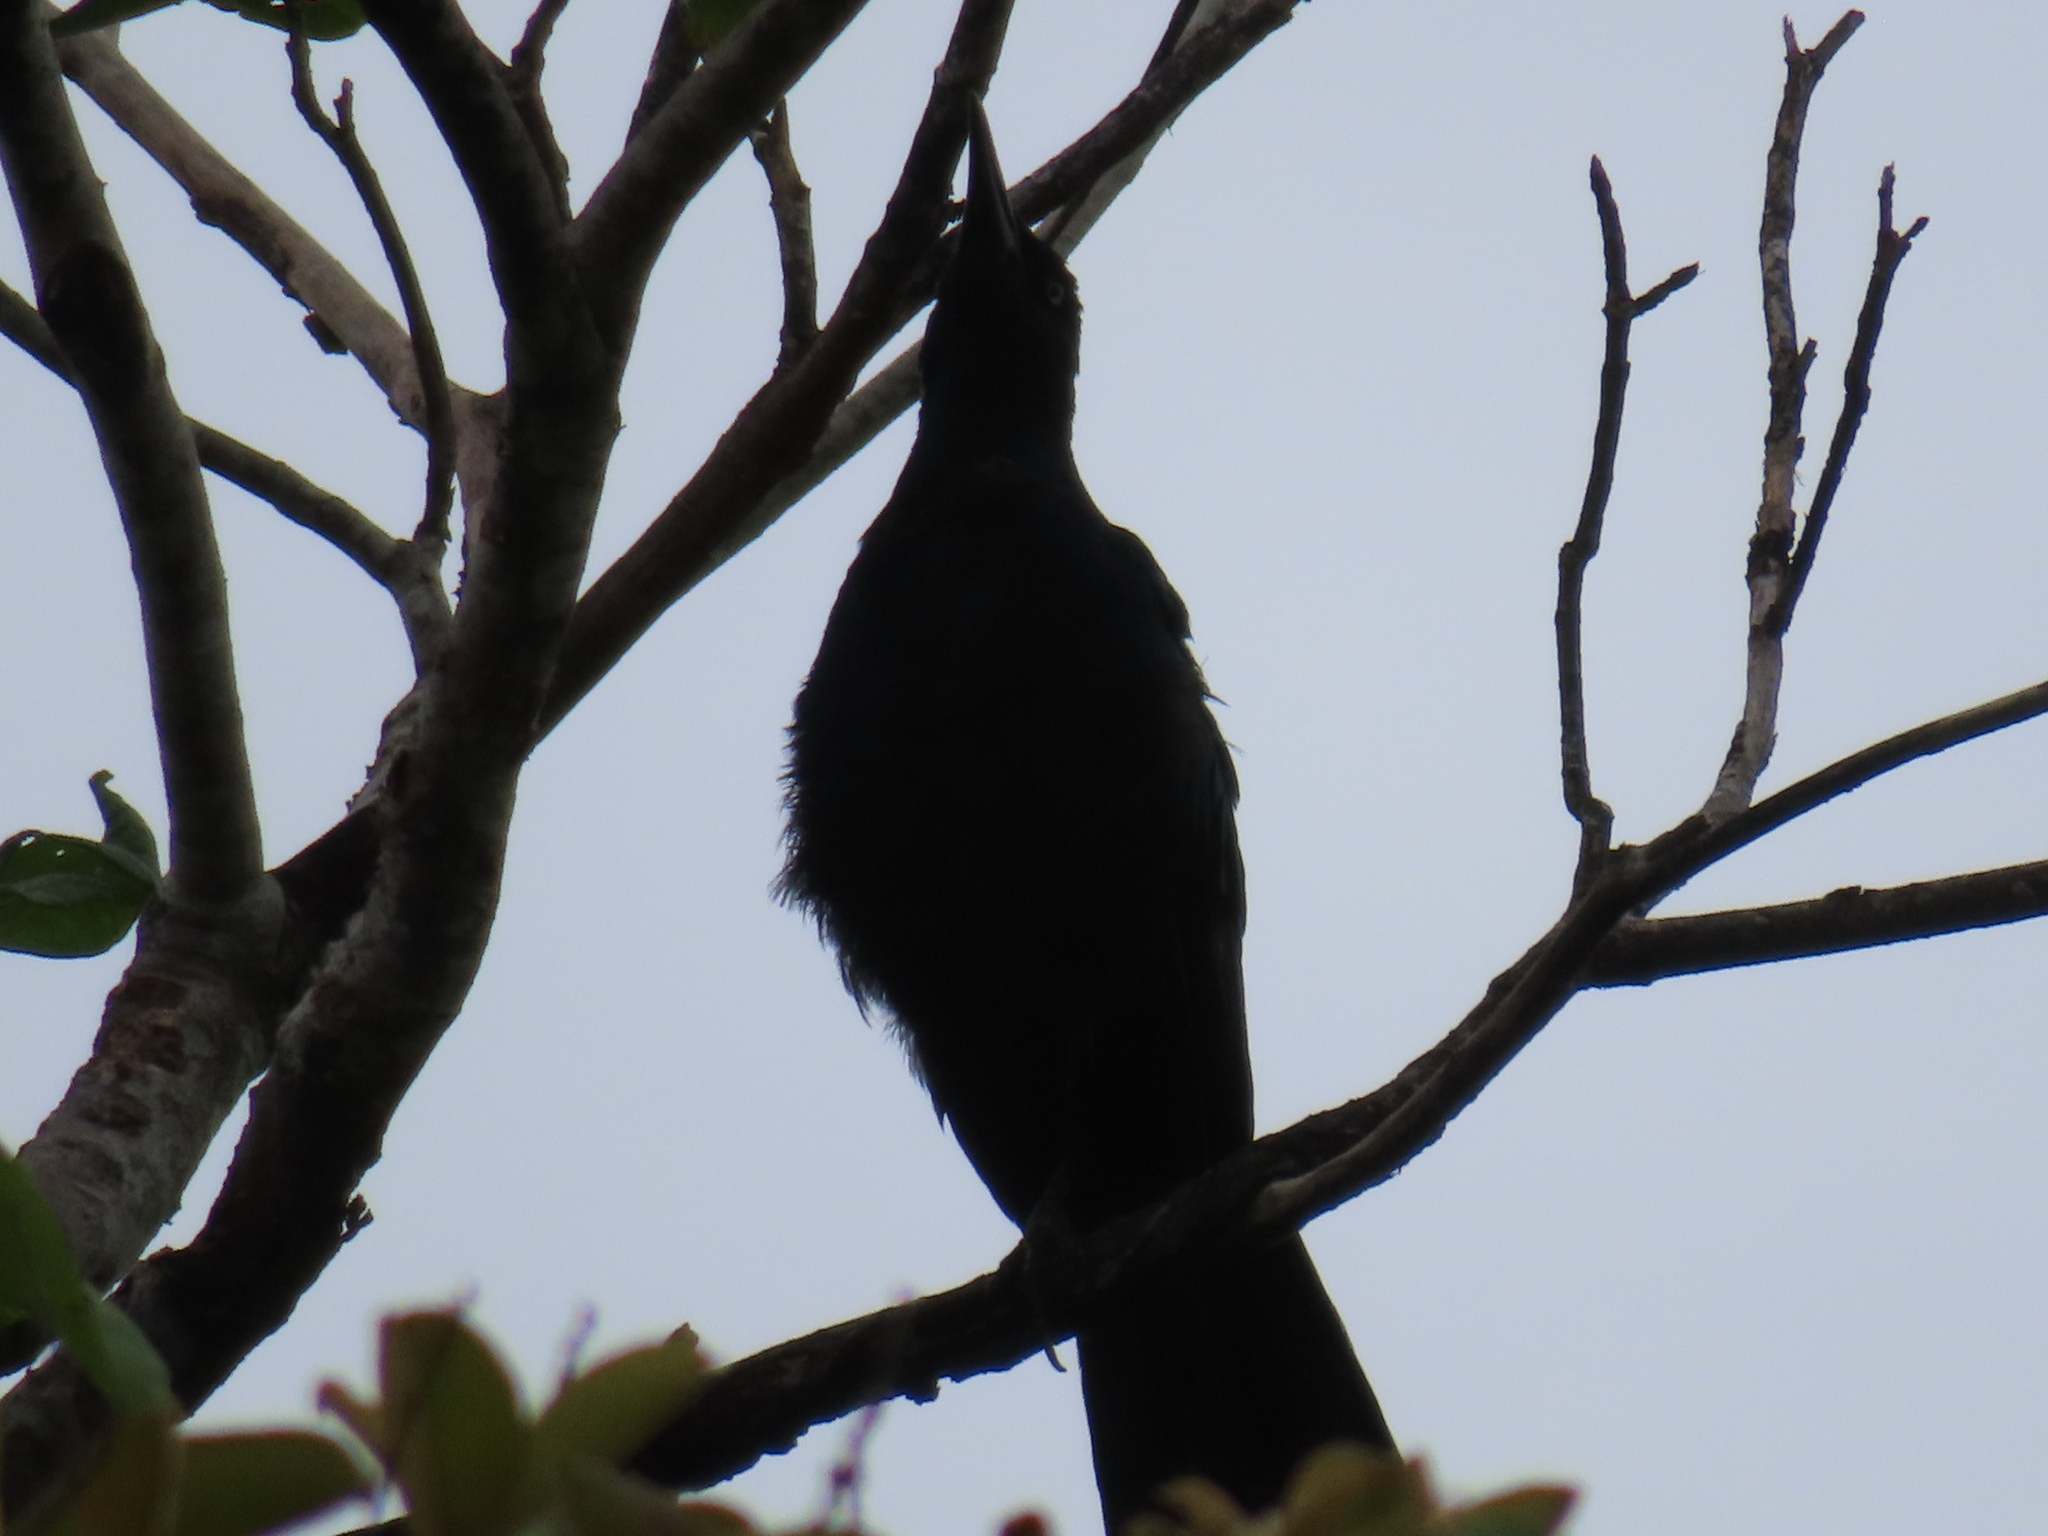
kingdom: Animalia
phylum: Chordata
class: Aves
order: Passeriformes
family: Icteridae
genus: Quiscalus
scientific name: Quiscalus mexicanus
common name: Great-tailed grackle
